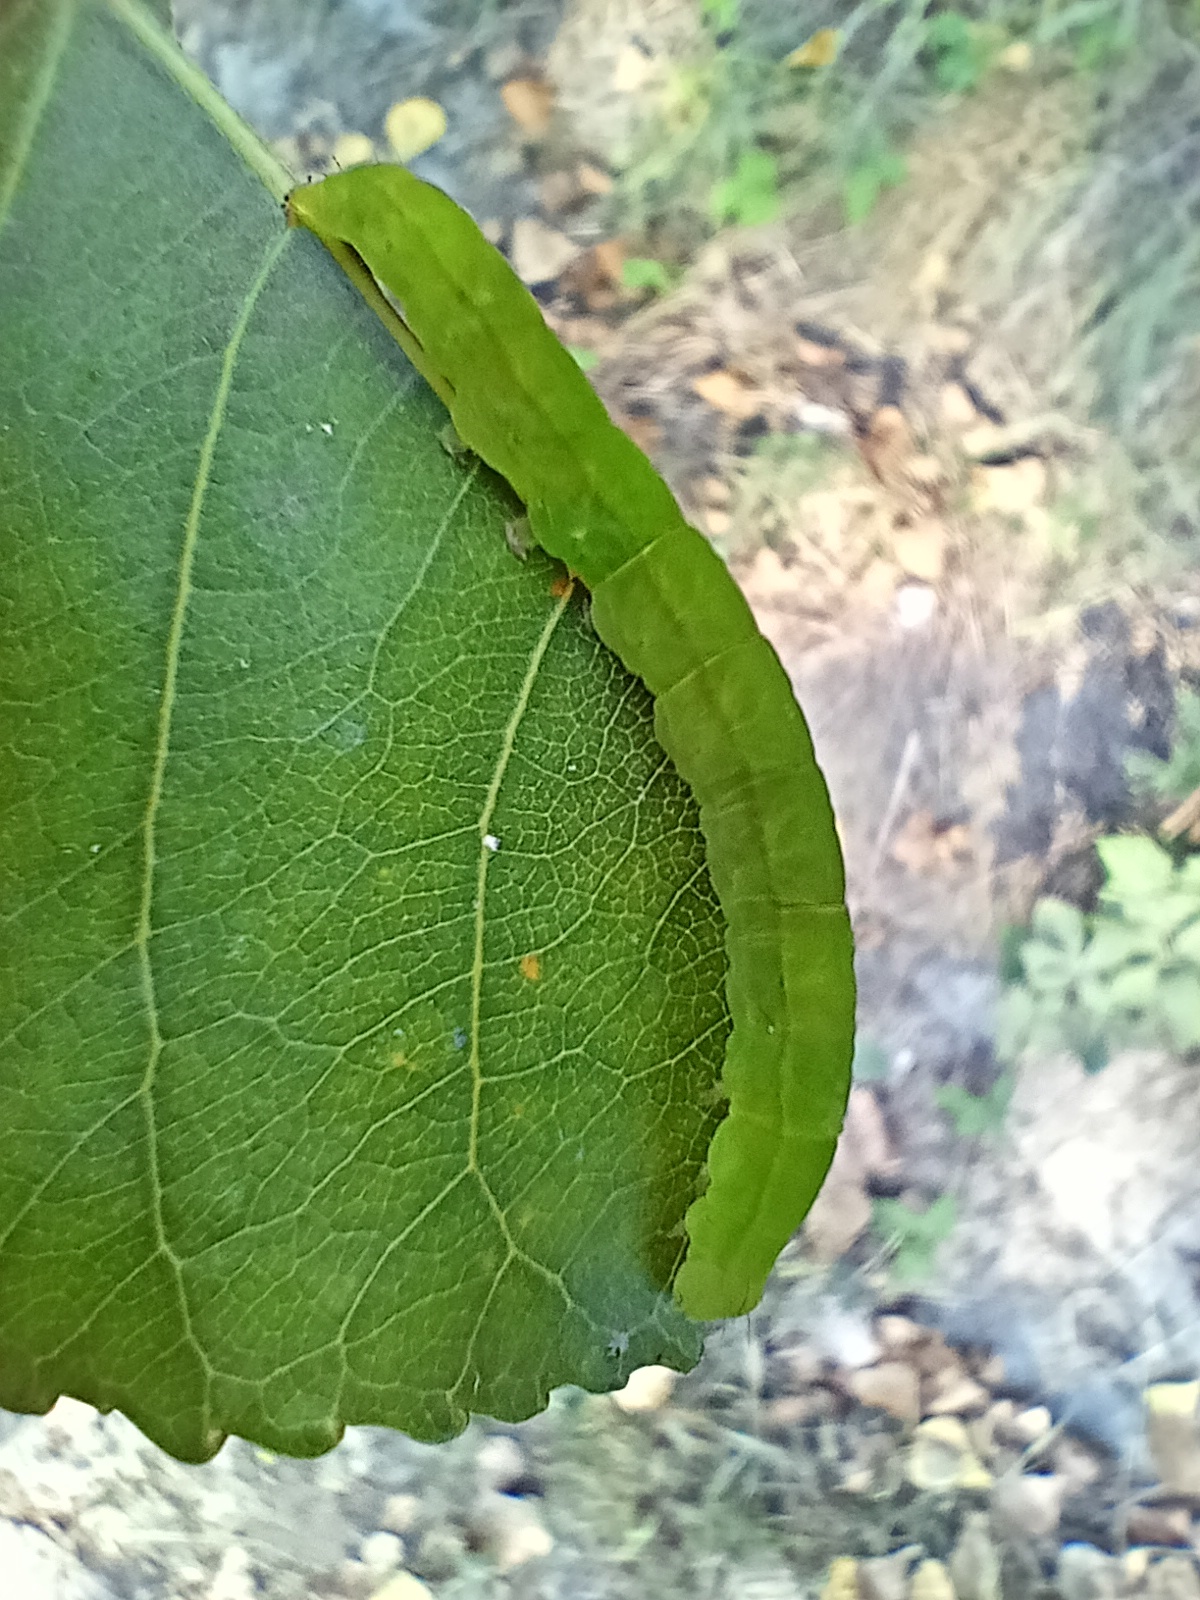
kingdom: Animalia
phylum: Arthropoda
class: Insecta
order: Lepidoptera
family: Erebidae
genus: Scoliopteryx
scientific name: Scoliopteryx libatrix
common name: Herald
